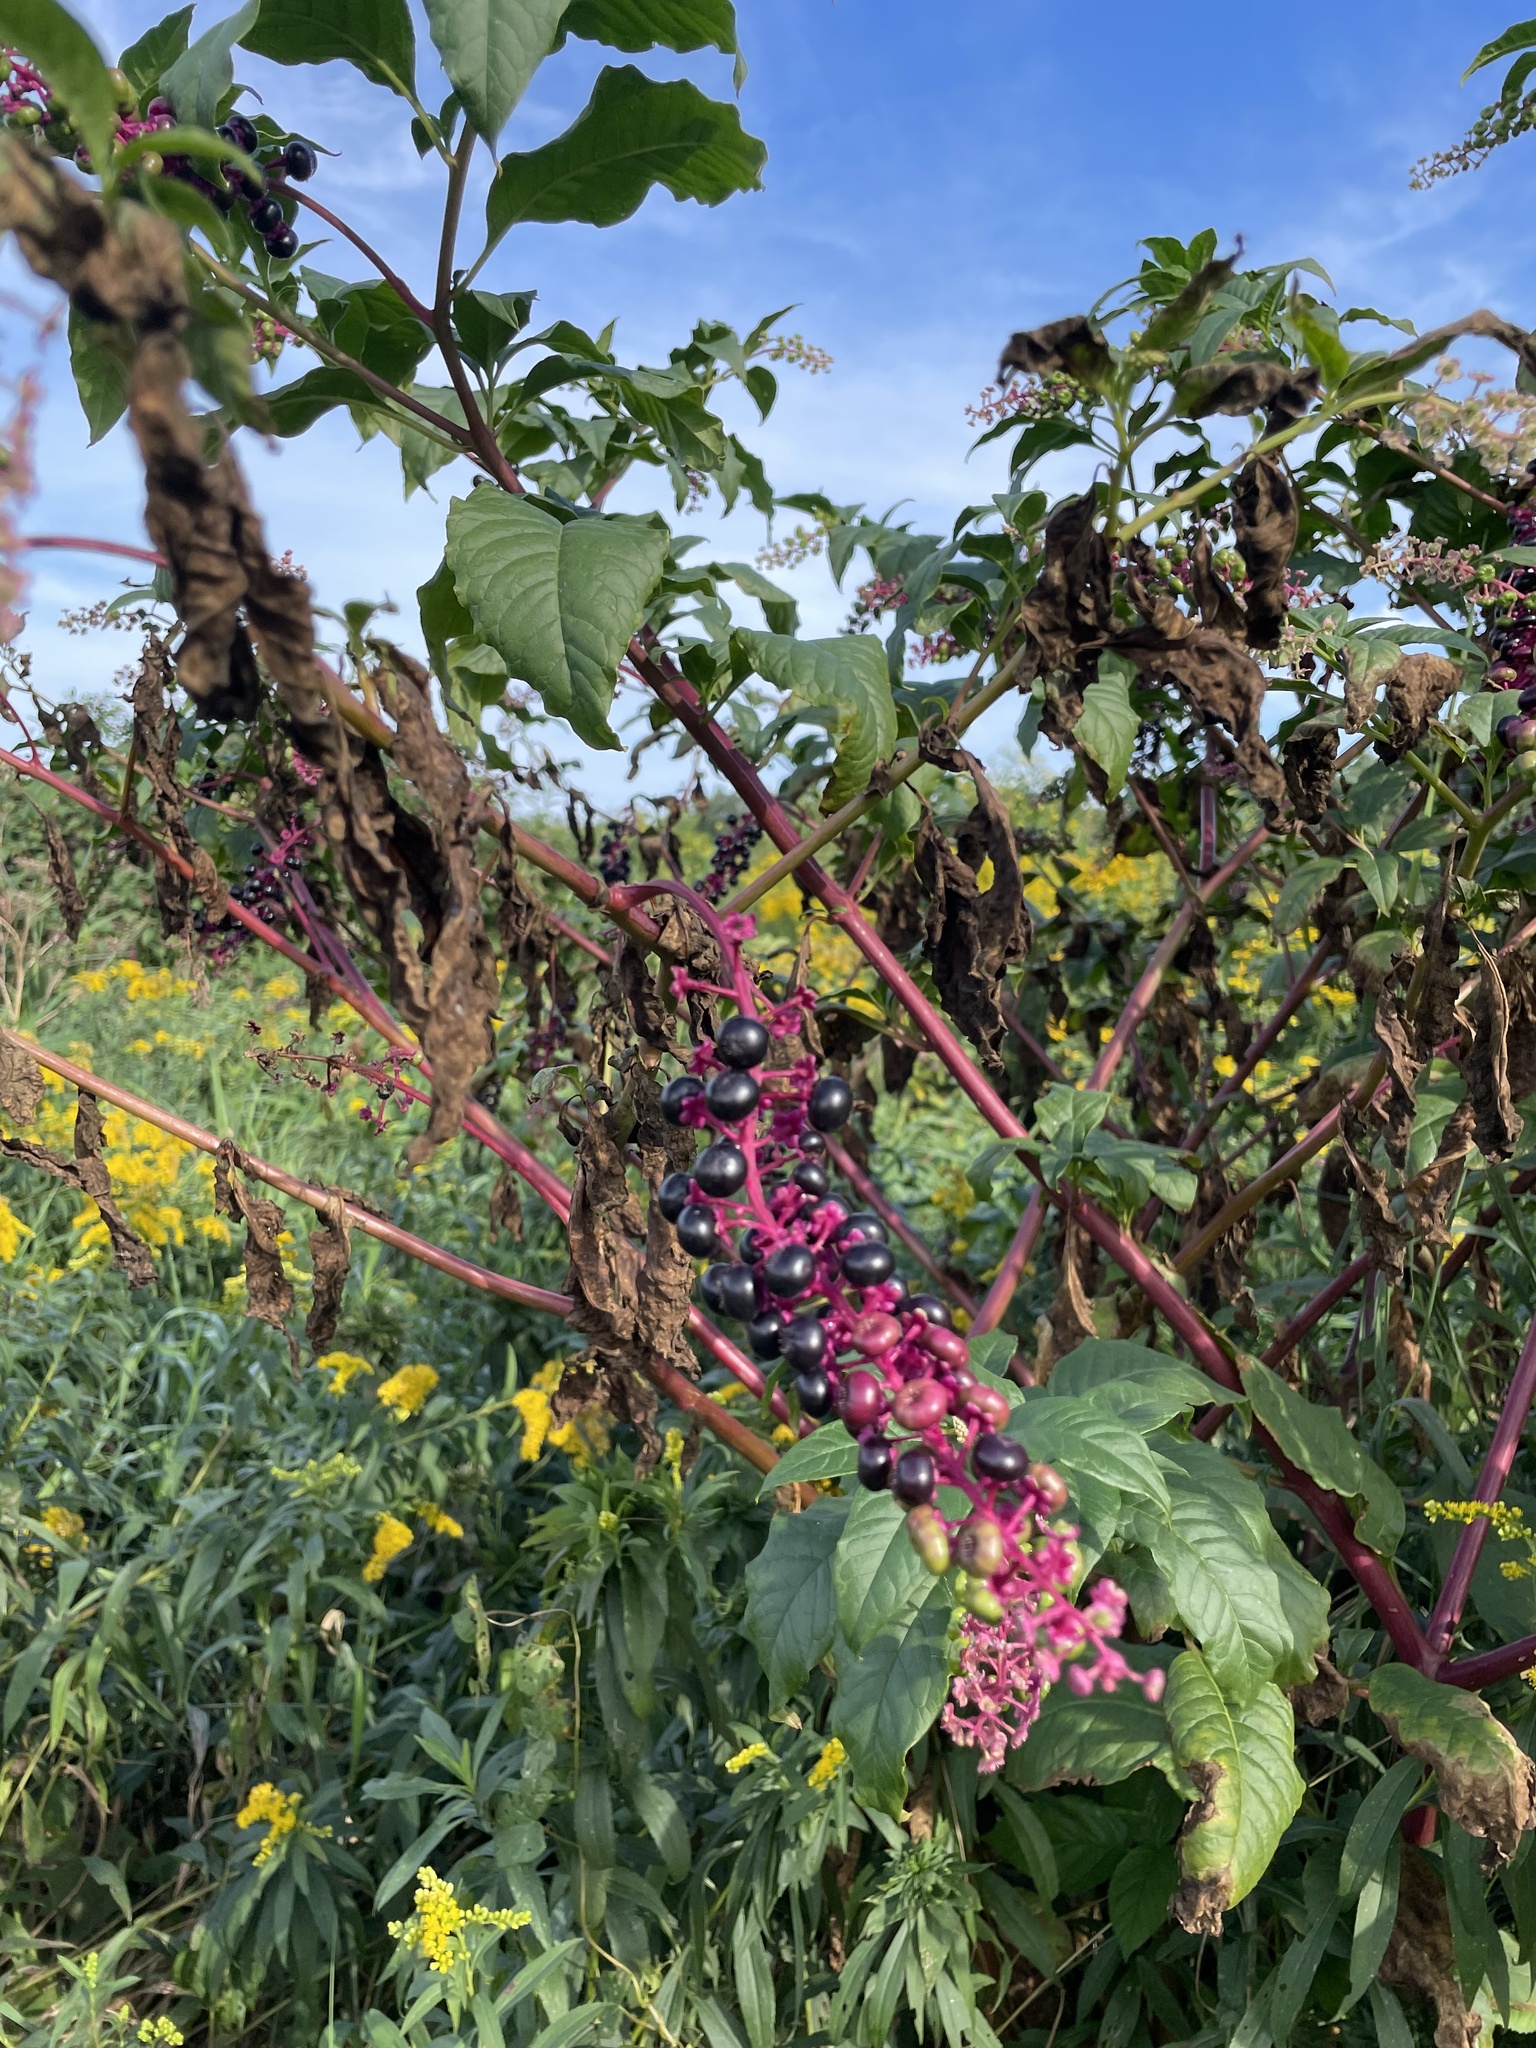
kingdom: Plantae
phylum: Tracheophyta
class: Magnoliopsida
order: Caryophyllales
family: Phytolaccaceae
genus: Phytolacca
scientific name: Phytolacca americana
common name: American pokeweed
